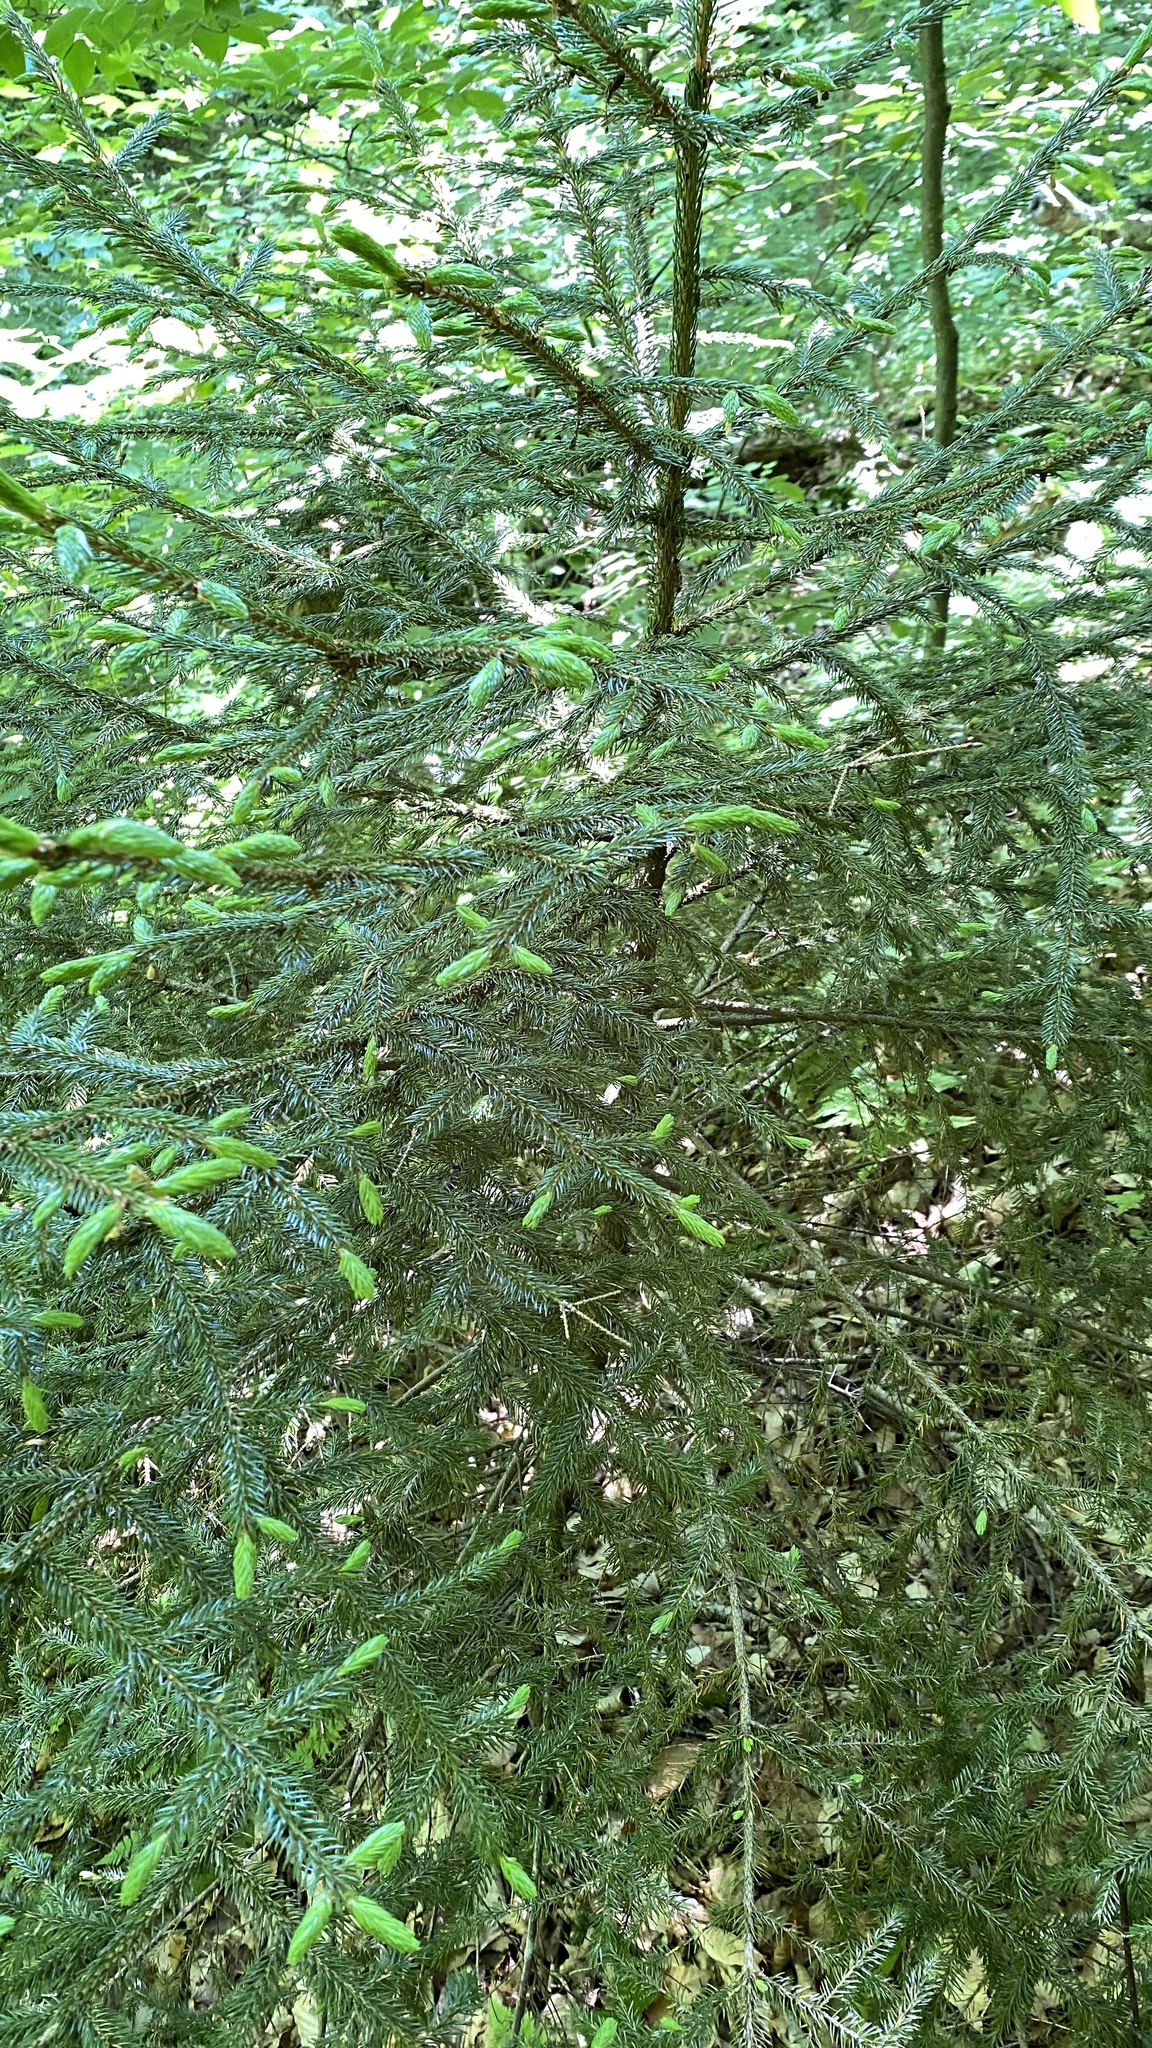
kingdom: Plantae
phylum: Tracheophyta
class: Pinopsida
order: Pinales
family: Pinaceae
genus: Picea
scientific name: Picea rubens
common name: Red spruce
